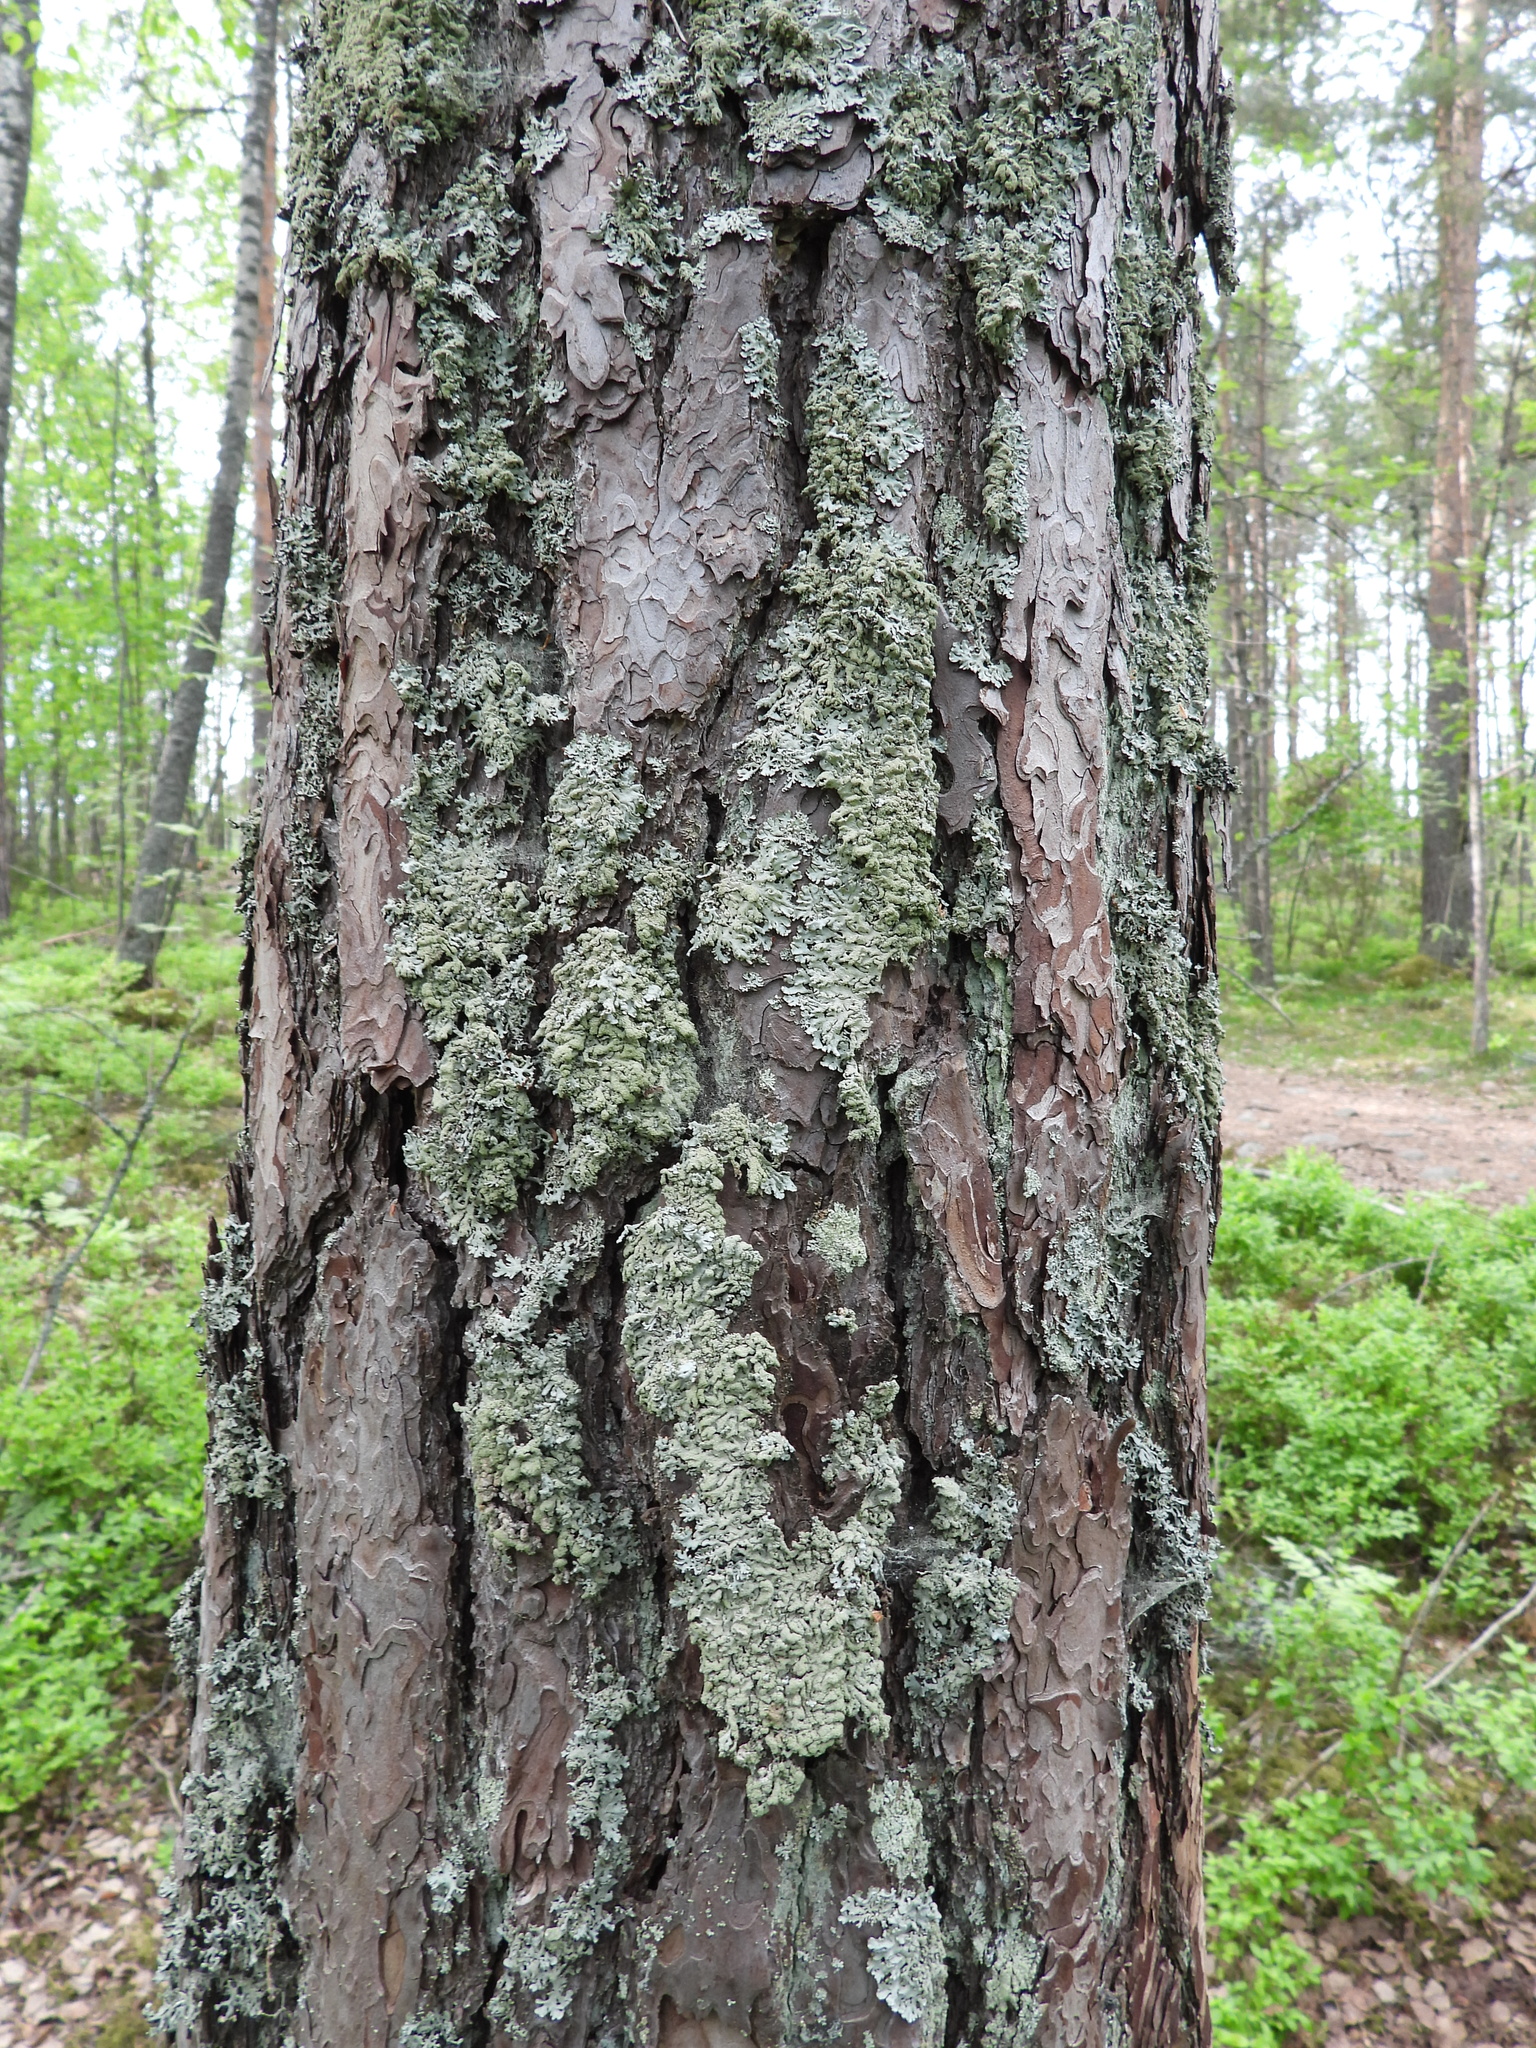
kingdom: Fungi
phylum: Ascomycota
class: Lecanoromycetes
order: Lecanorales
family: Parmeliaceae
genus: Hypogymnia
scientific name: Hypogymnia farinacea
